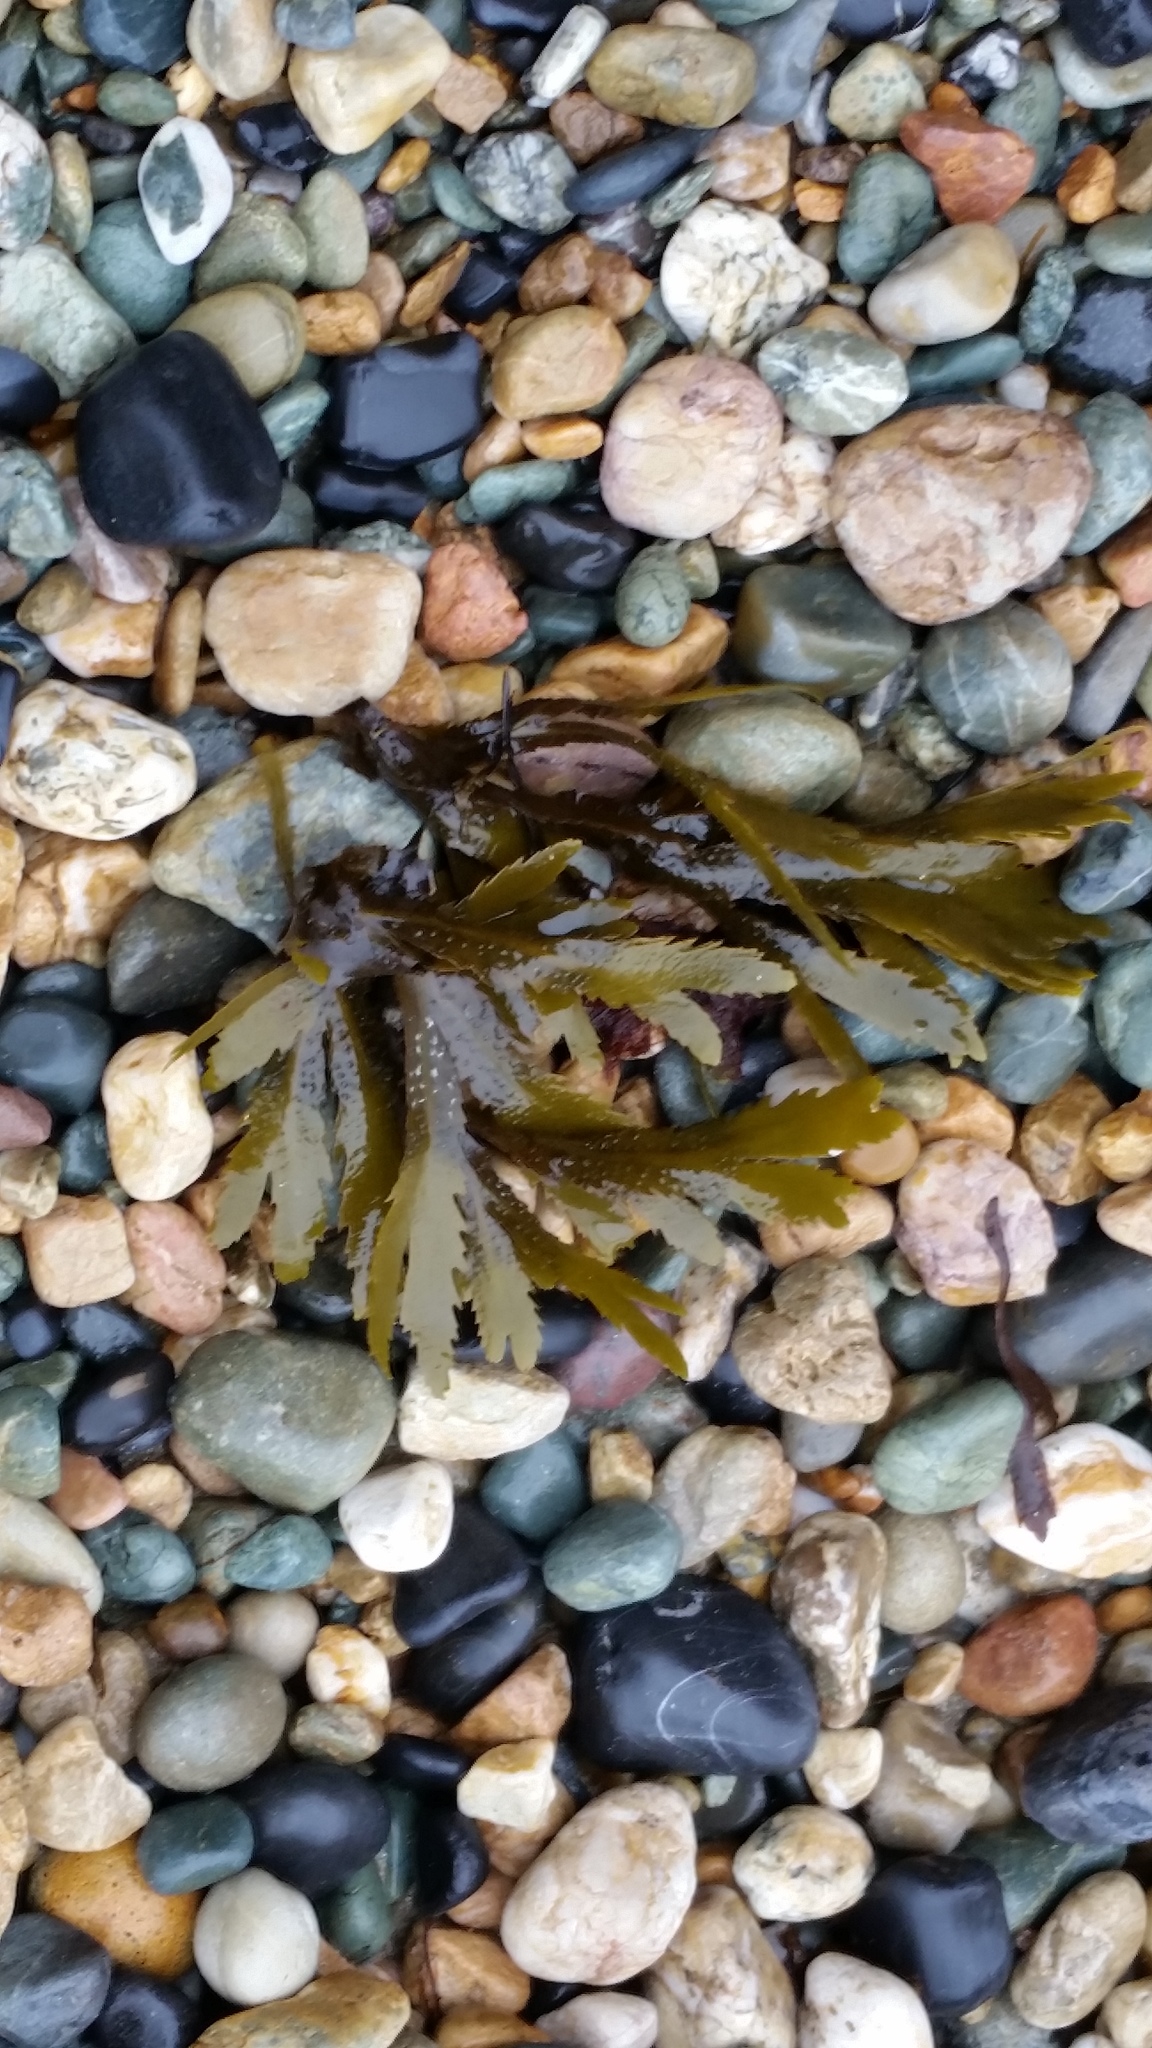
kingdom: Chromista
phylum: Ochrophyta
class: Phaeophyceae
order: Fucales
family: Fucaceae
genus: Fucus
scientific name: Fucus serratus
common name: Toothed wrack
